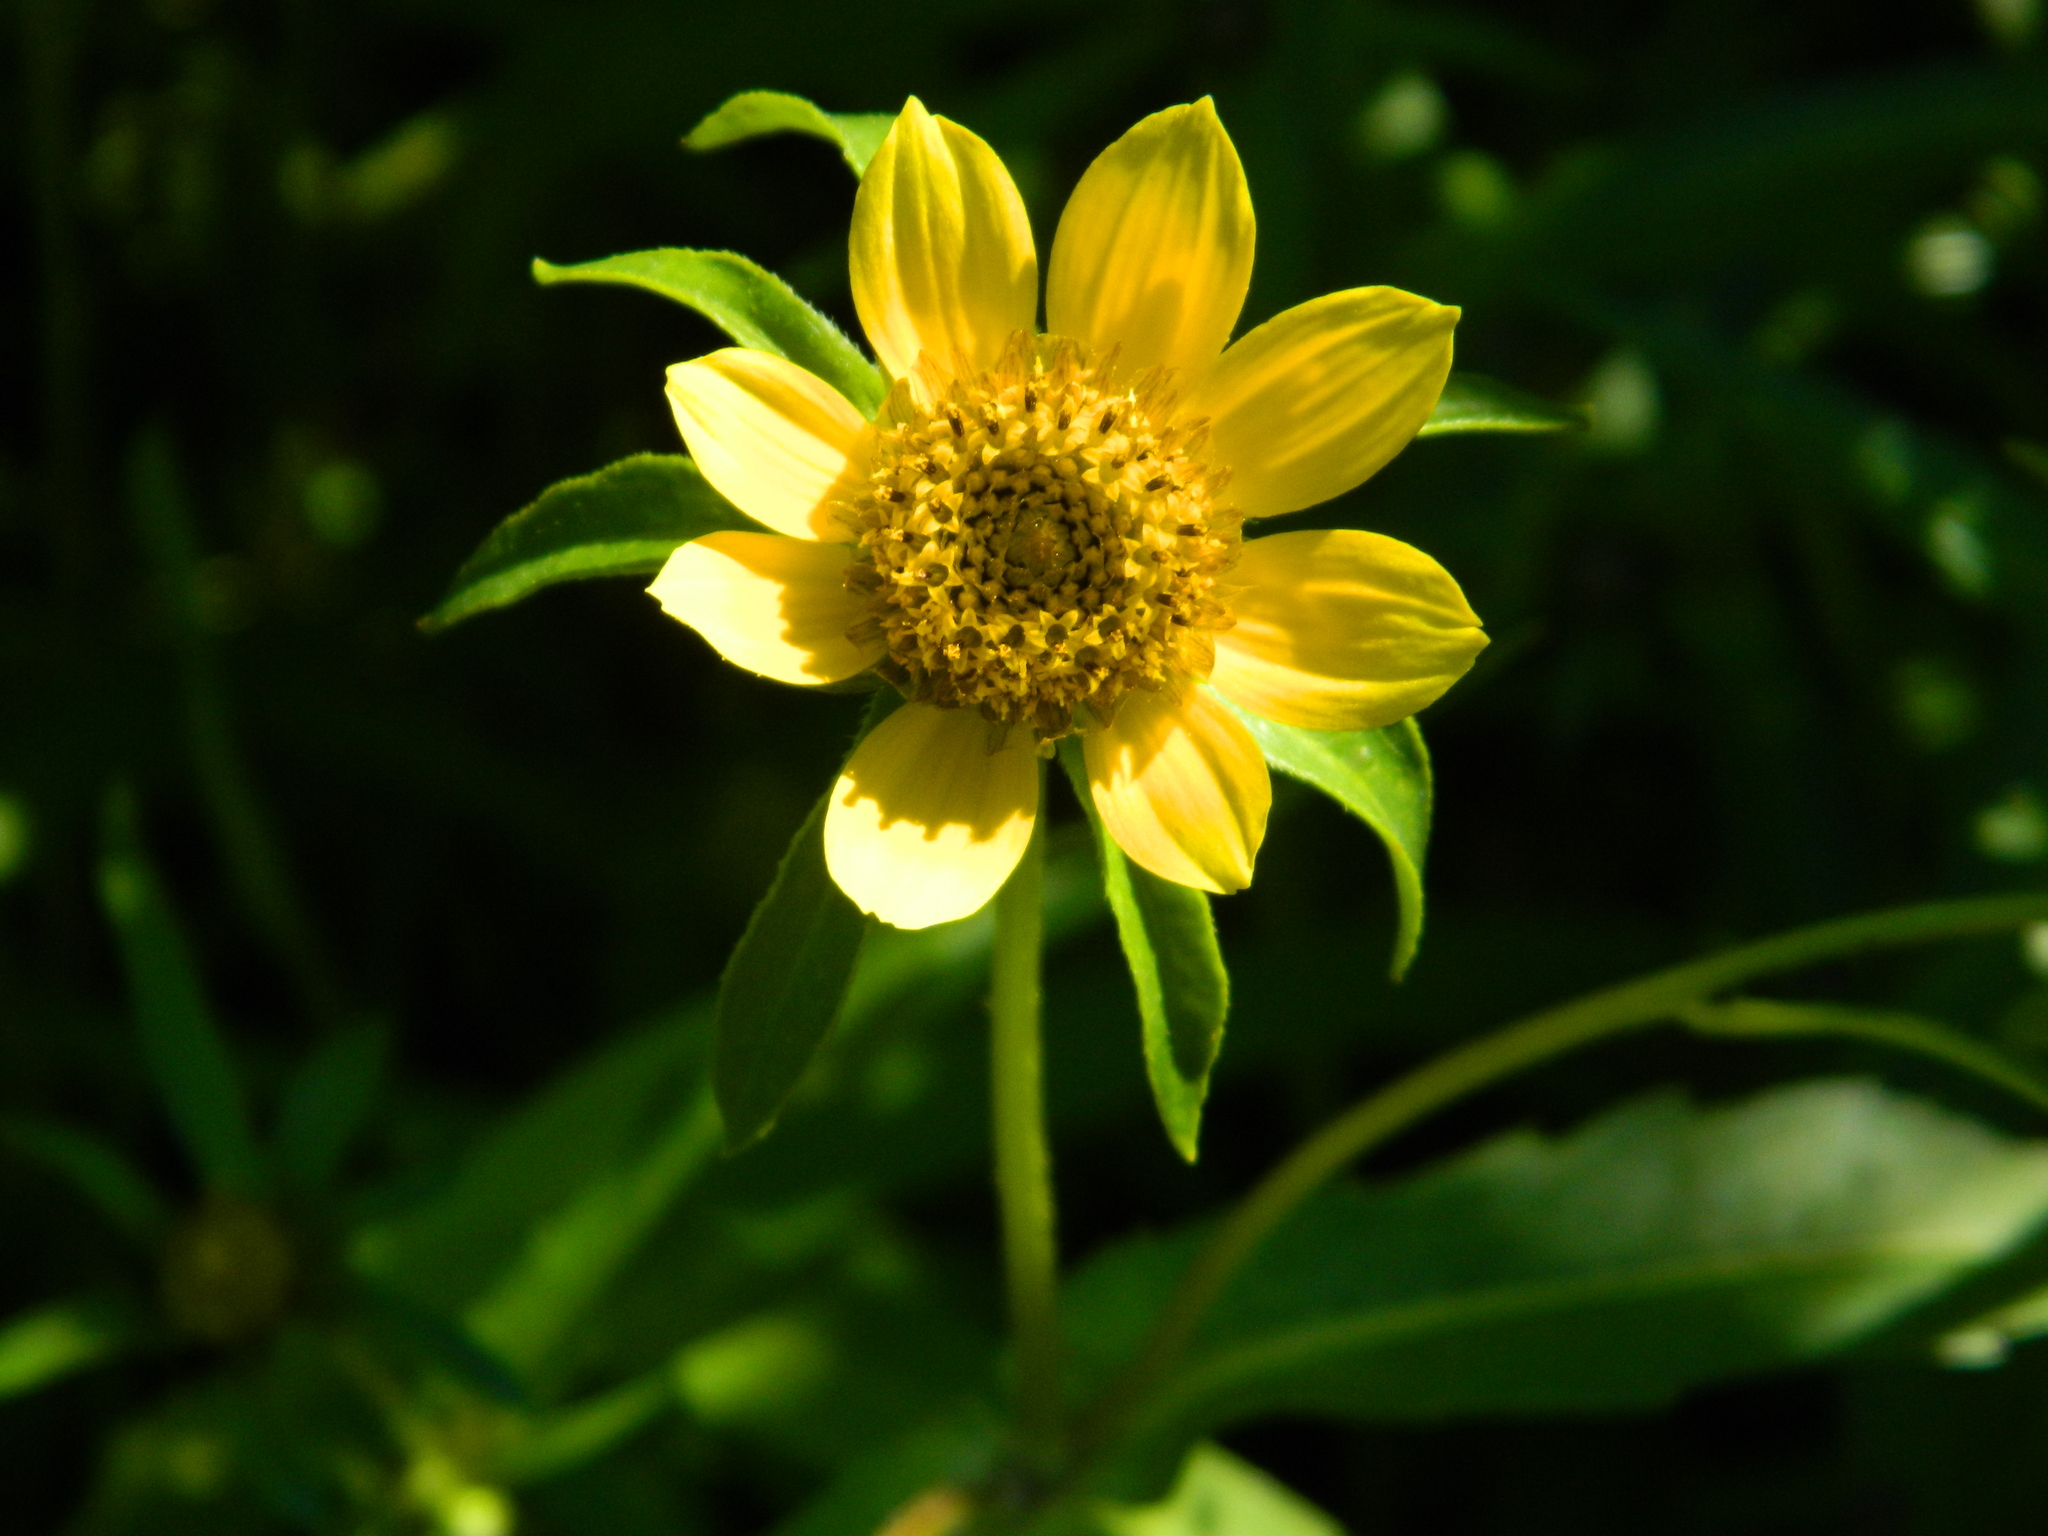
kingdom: Plantae
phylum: Tracheophyta
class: Magnoliopsida
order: Asterales
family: Asteraceae
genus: Bidens
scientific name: Bidens cernua
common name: Nodding bur-marigold
